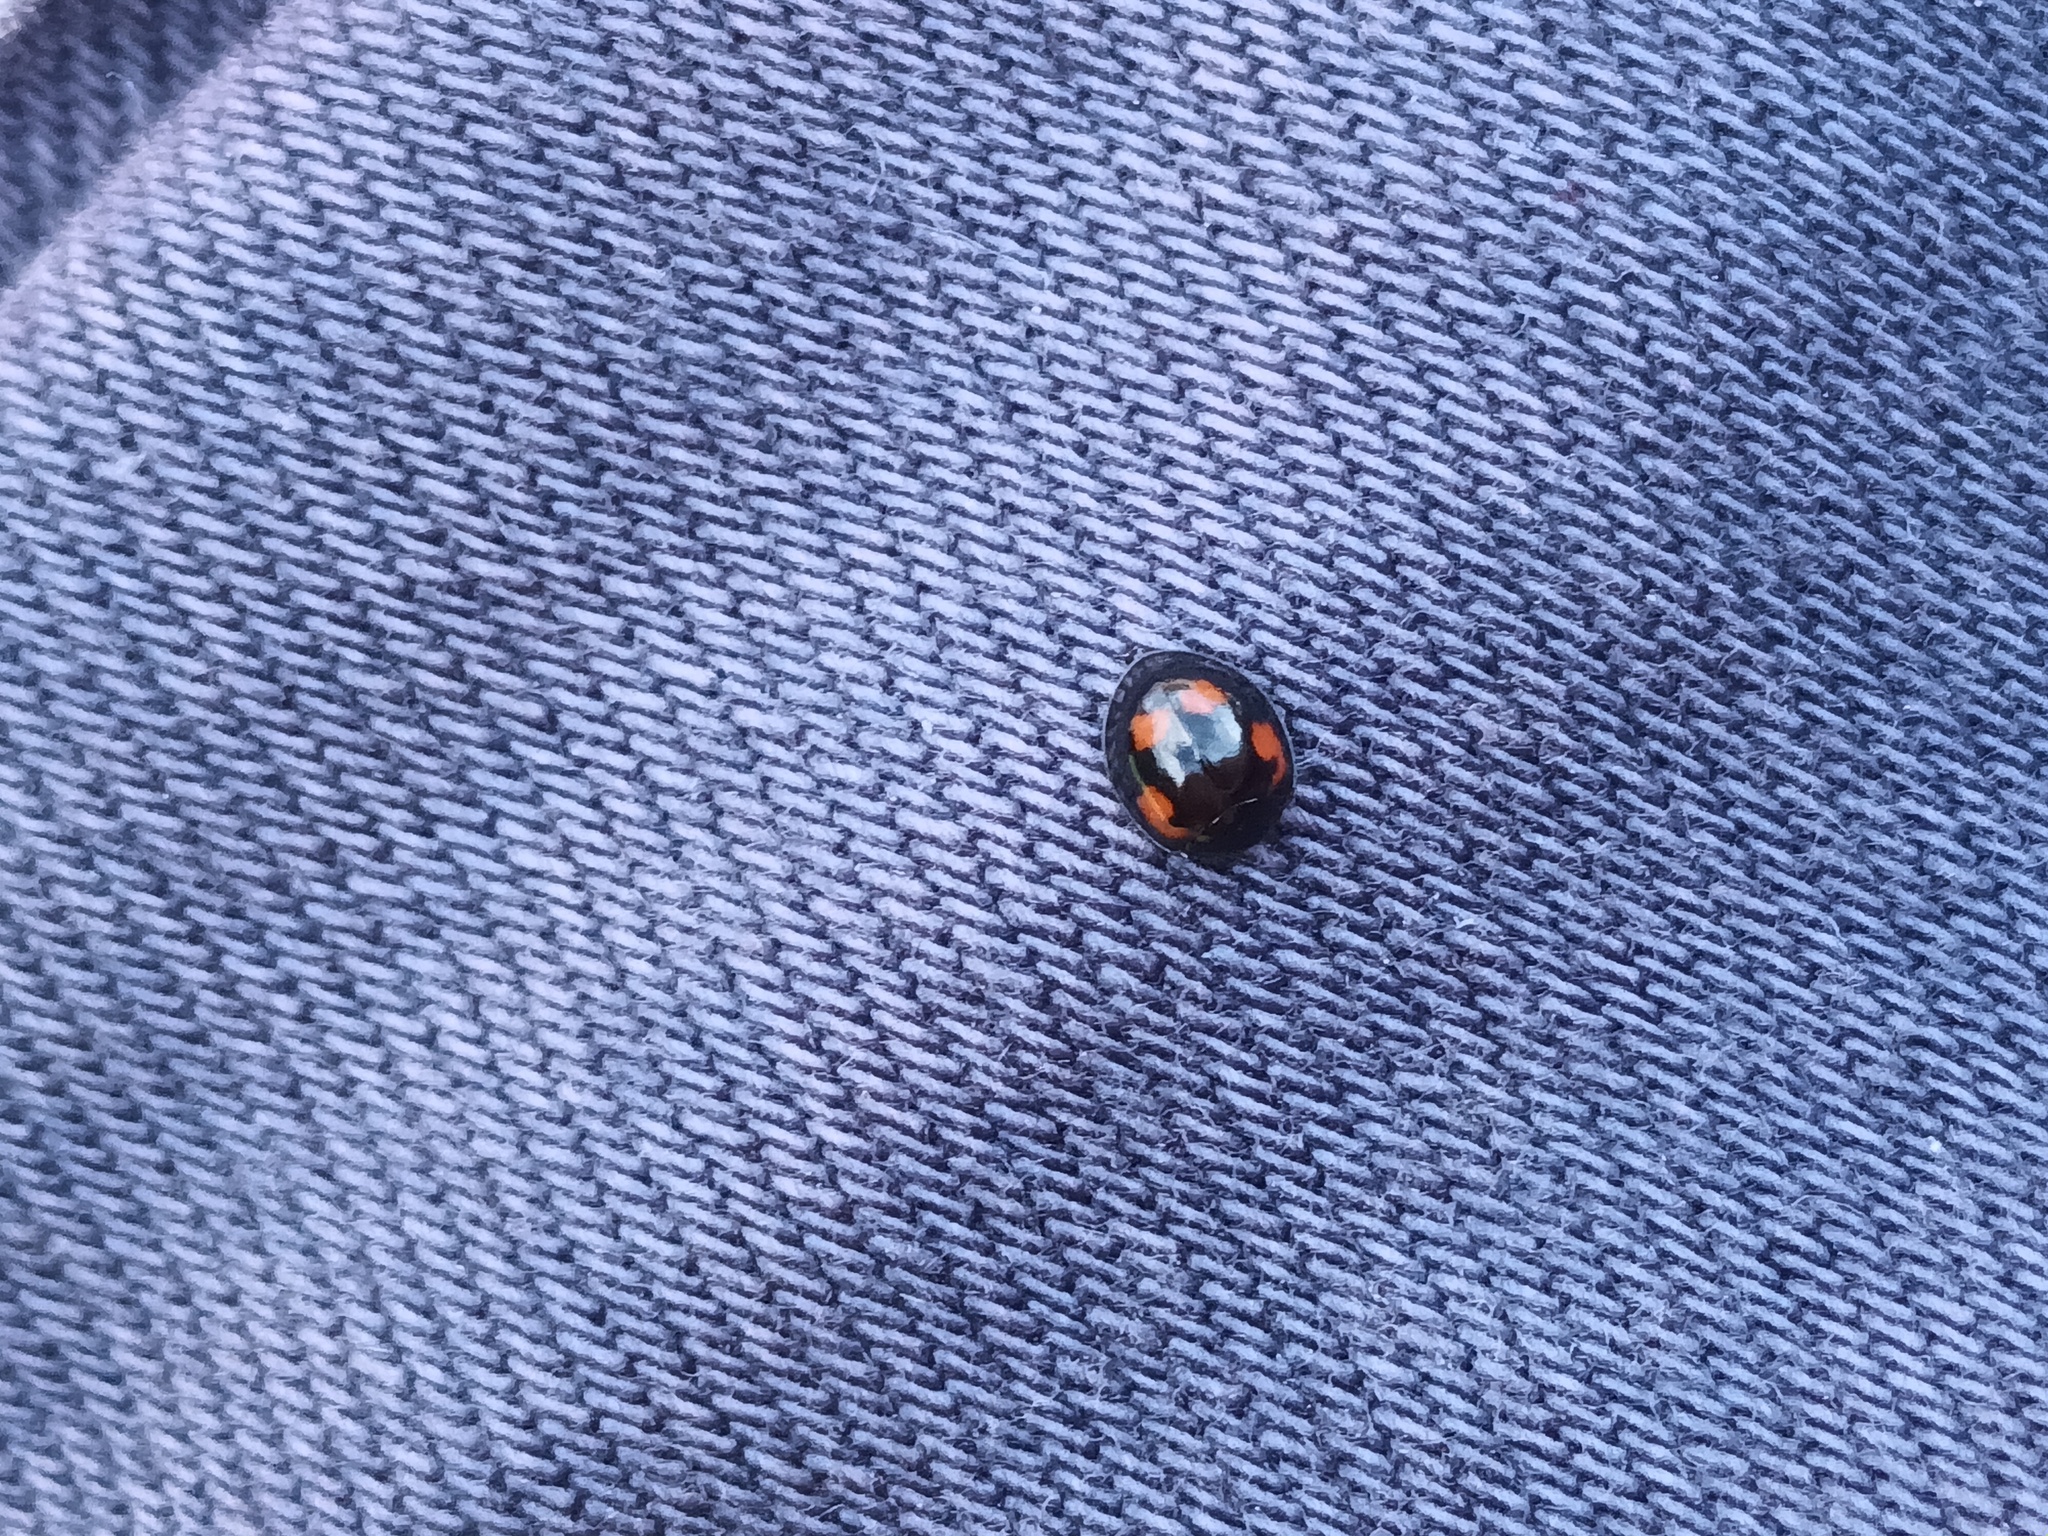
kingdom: Animalia
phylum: Arthropoda
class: Insecta
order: Coleoptera
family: Coccinellidae
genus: Brumus
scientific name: Brumus quadripustulatus
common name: Ladybird beetle
